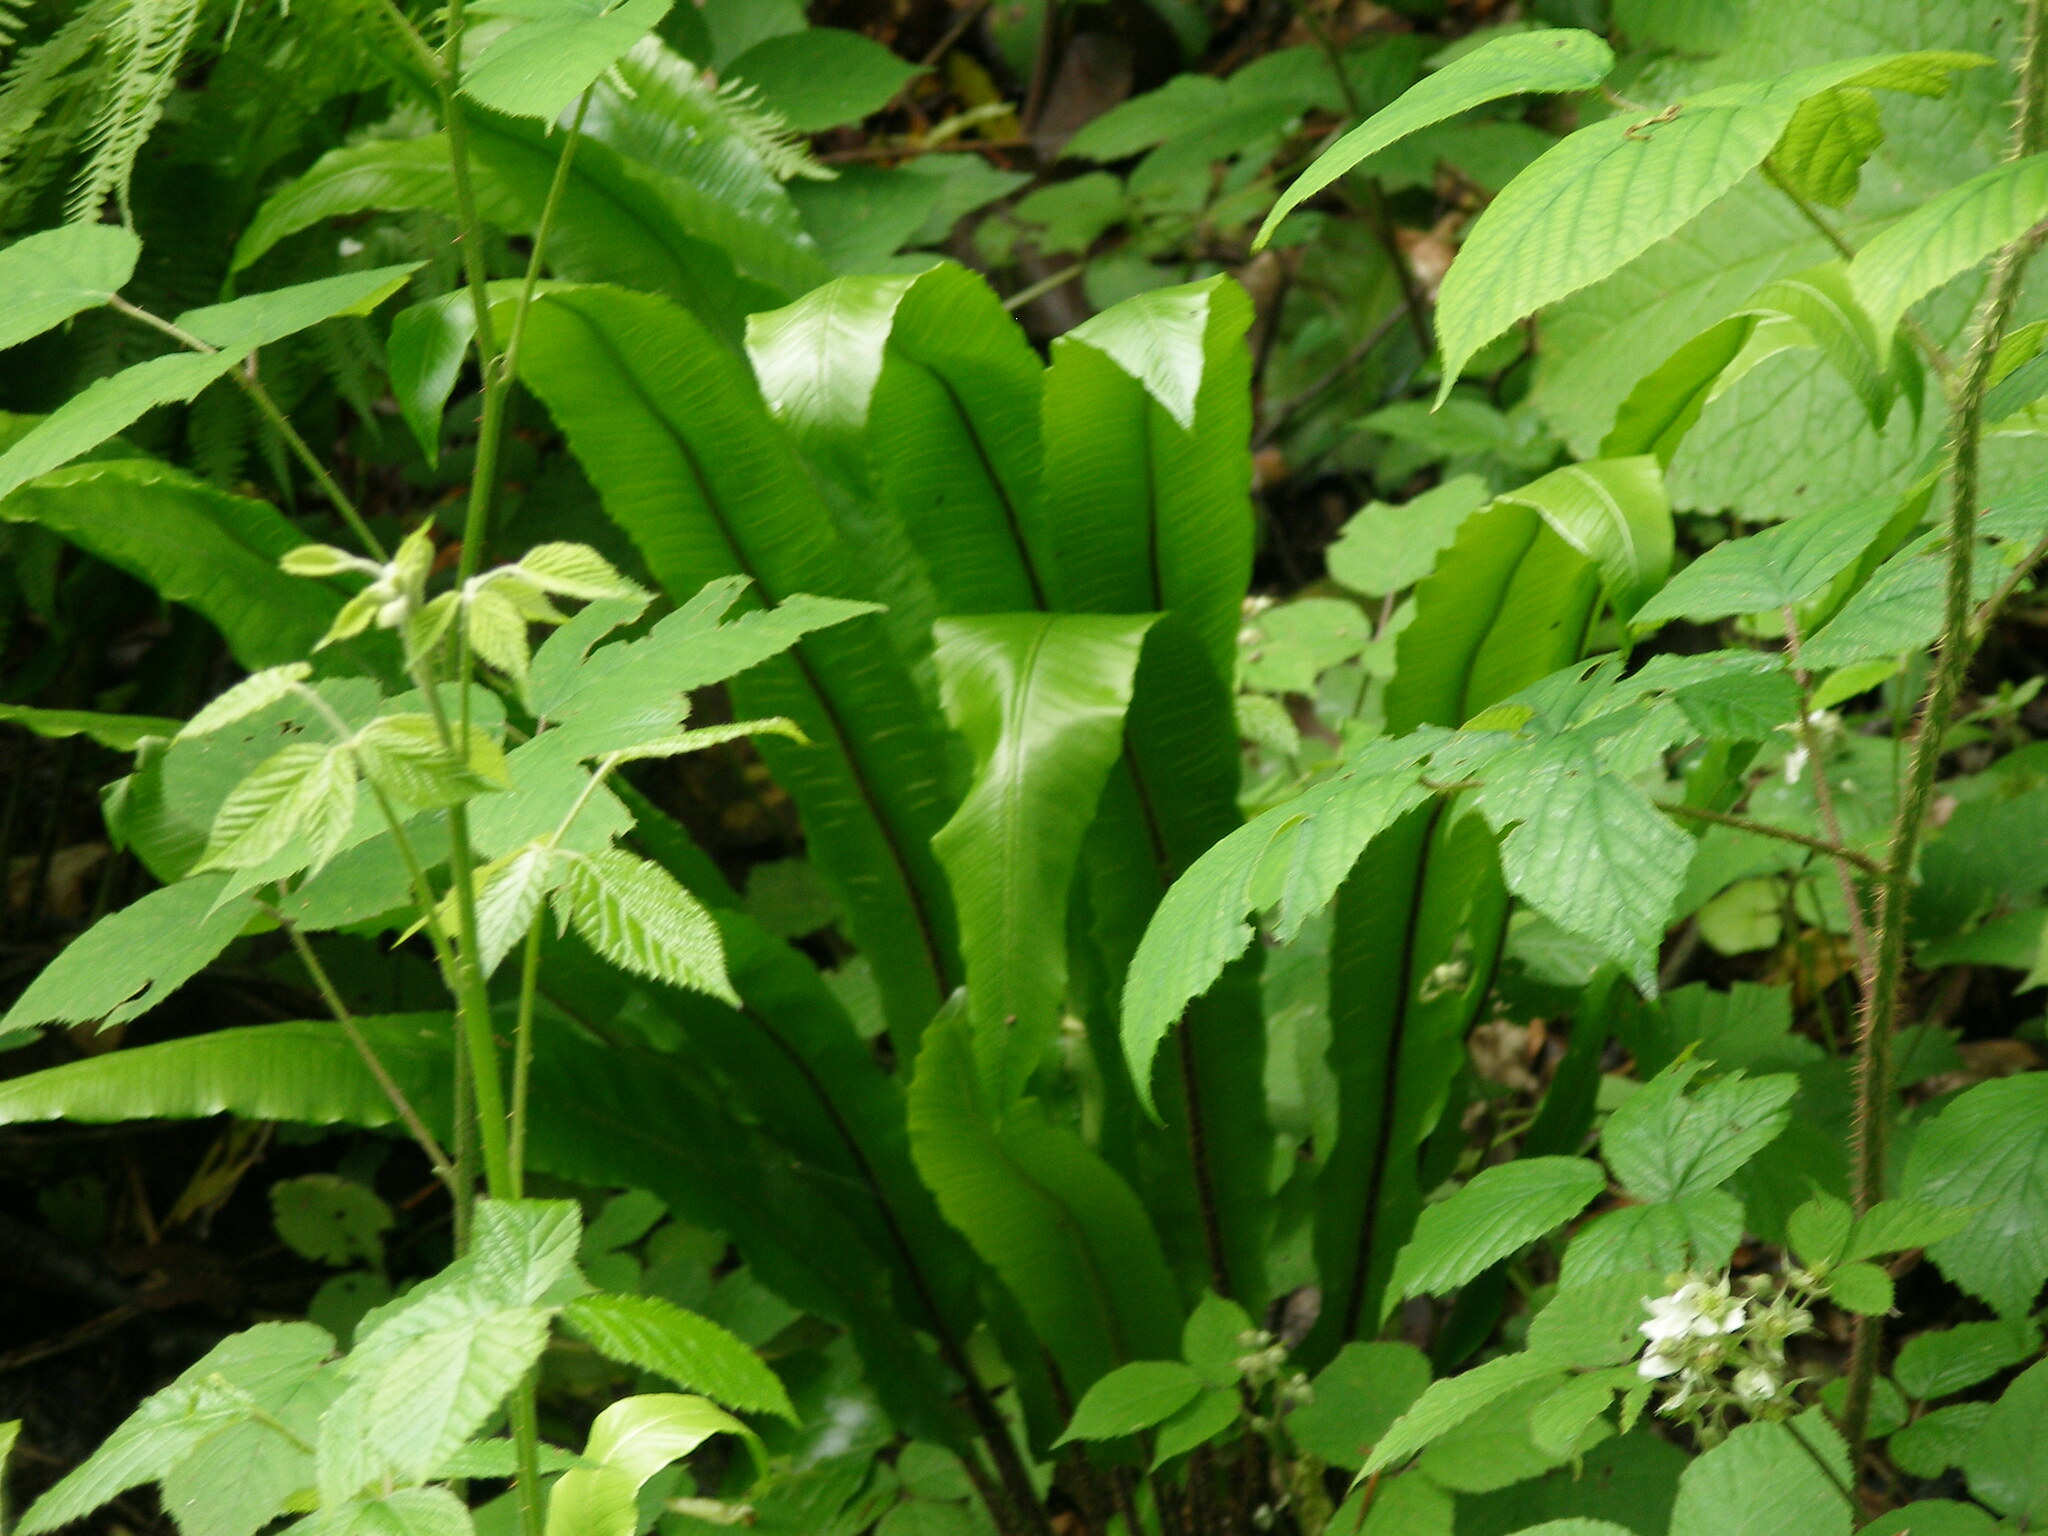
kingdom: Plantae
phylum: Tracheophyta
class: Polypodiopsida
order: Polypodiales
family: Aspleniaceae
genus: Asplenium
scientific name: Asplenium scolopendrium
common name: Hart's-tongue fern
